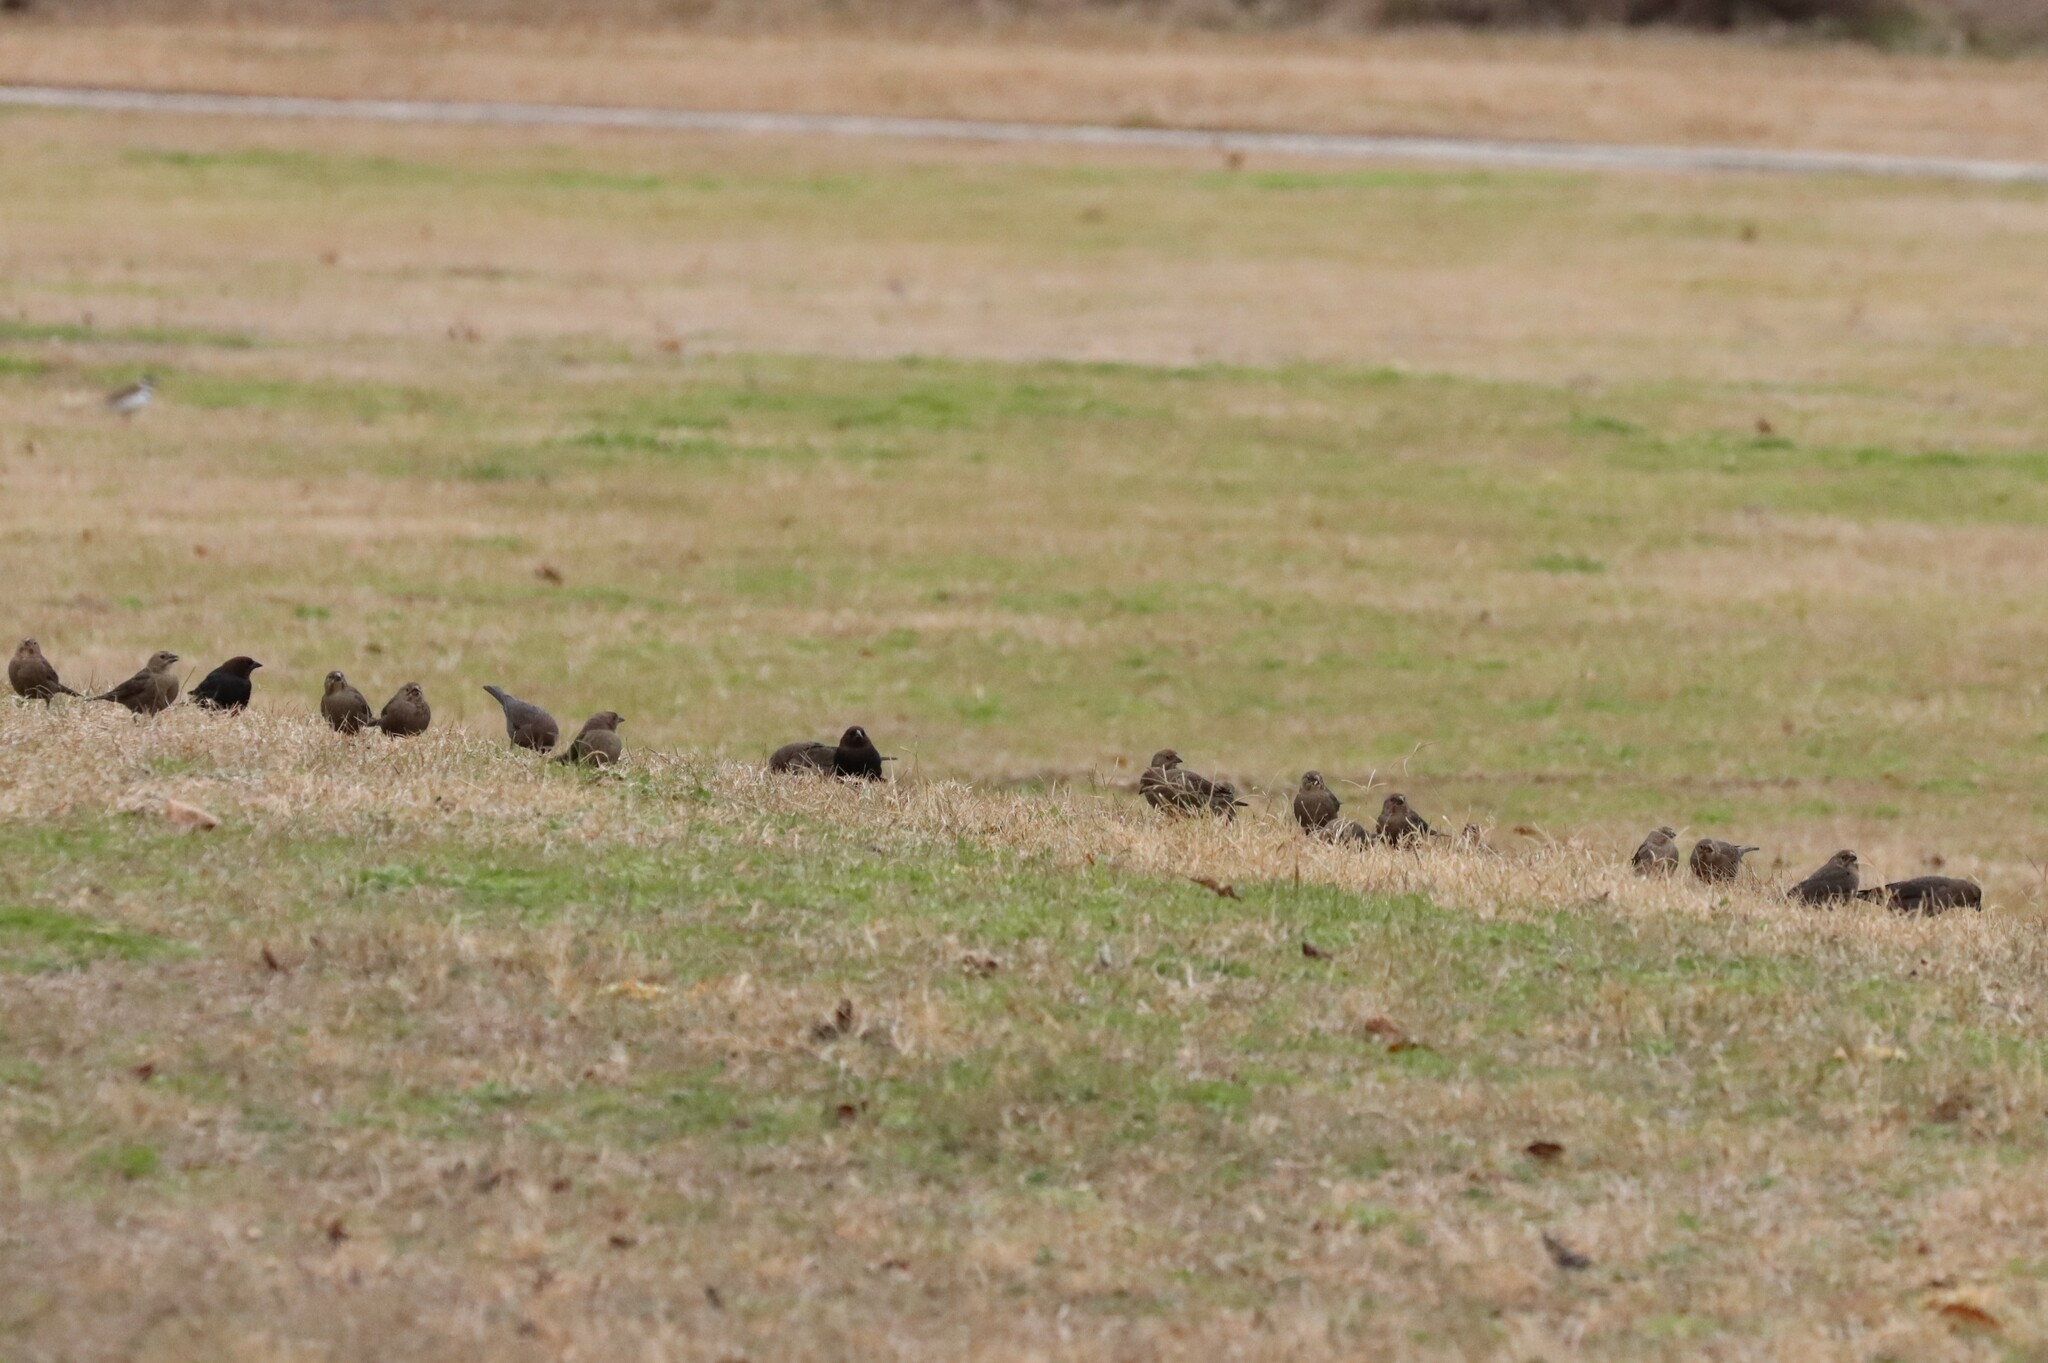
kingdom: Animalia
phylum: Chordata
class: Aves
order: Passeriformes
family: Icteridae
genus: Molothrus
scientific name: Molothrus ater
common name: Brown-headed cowbird
